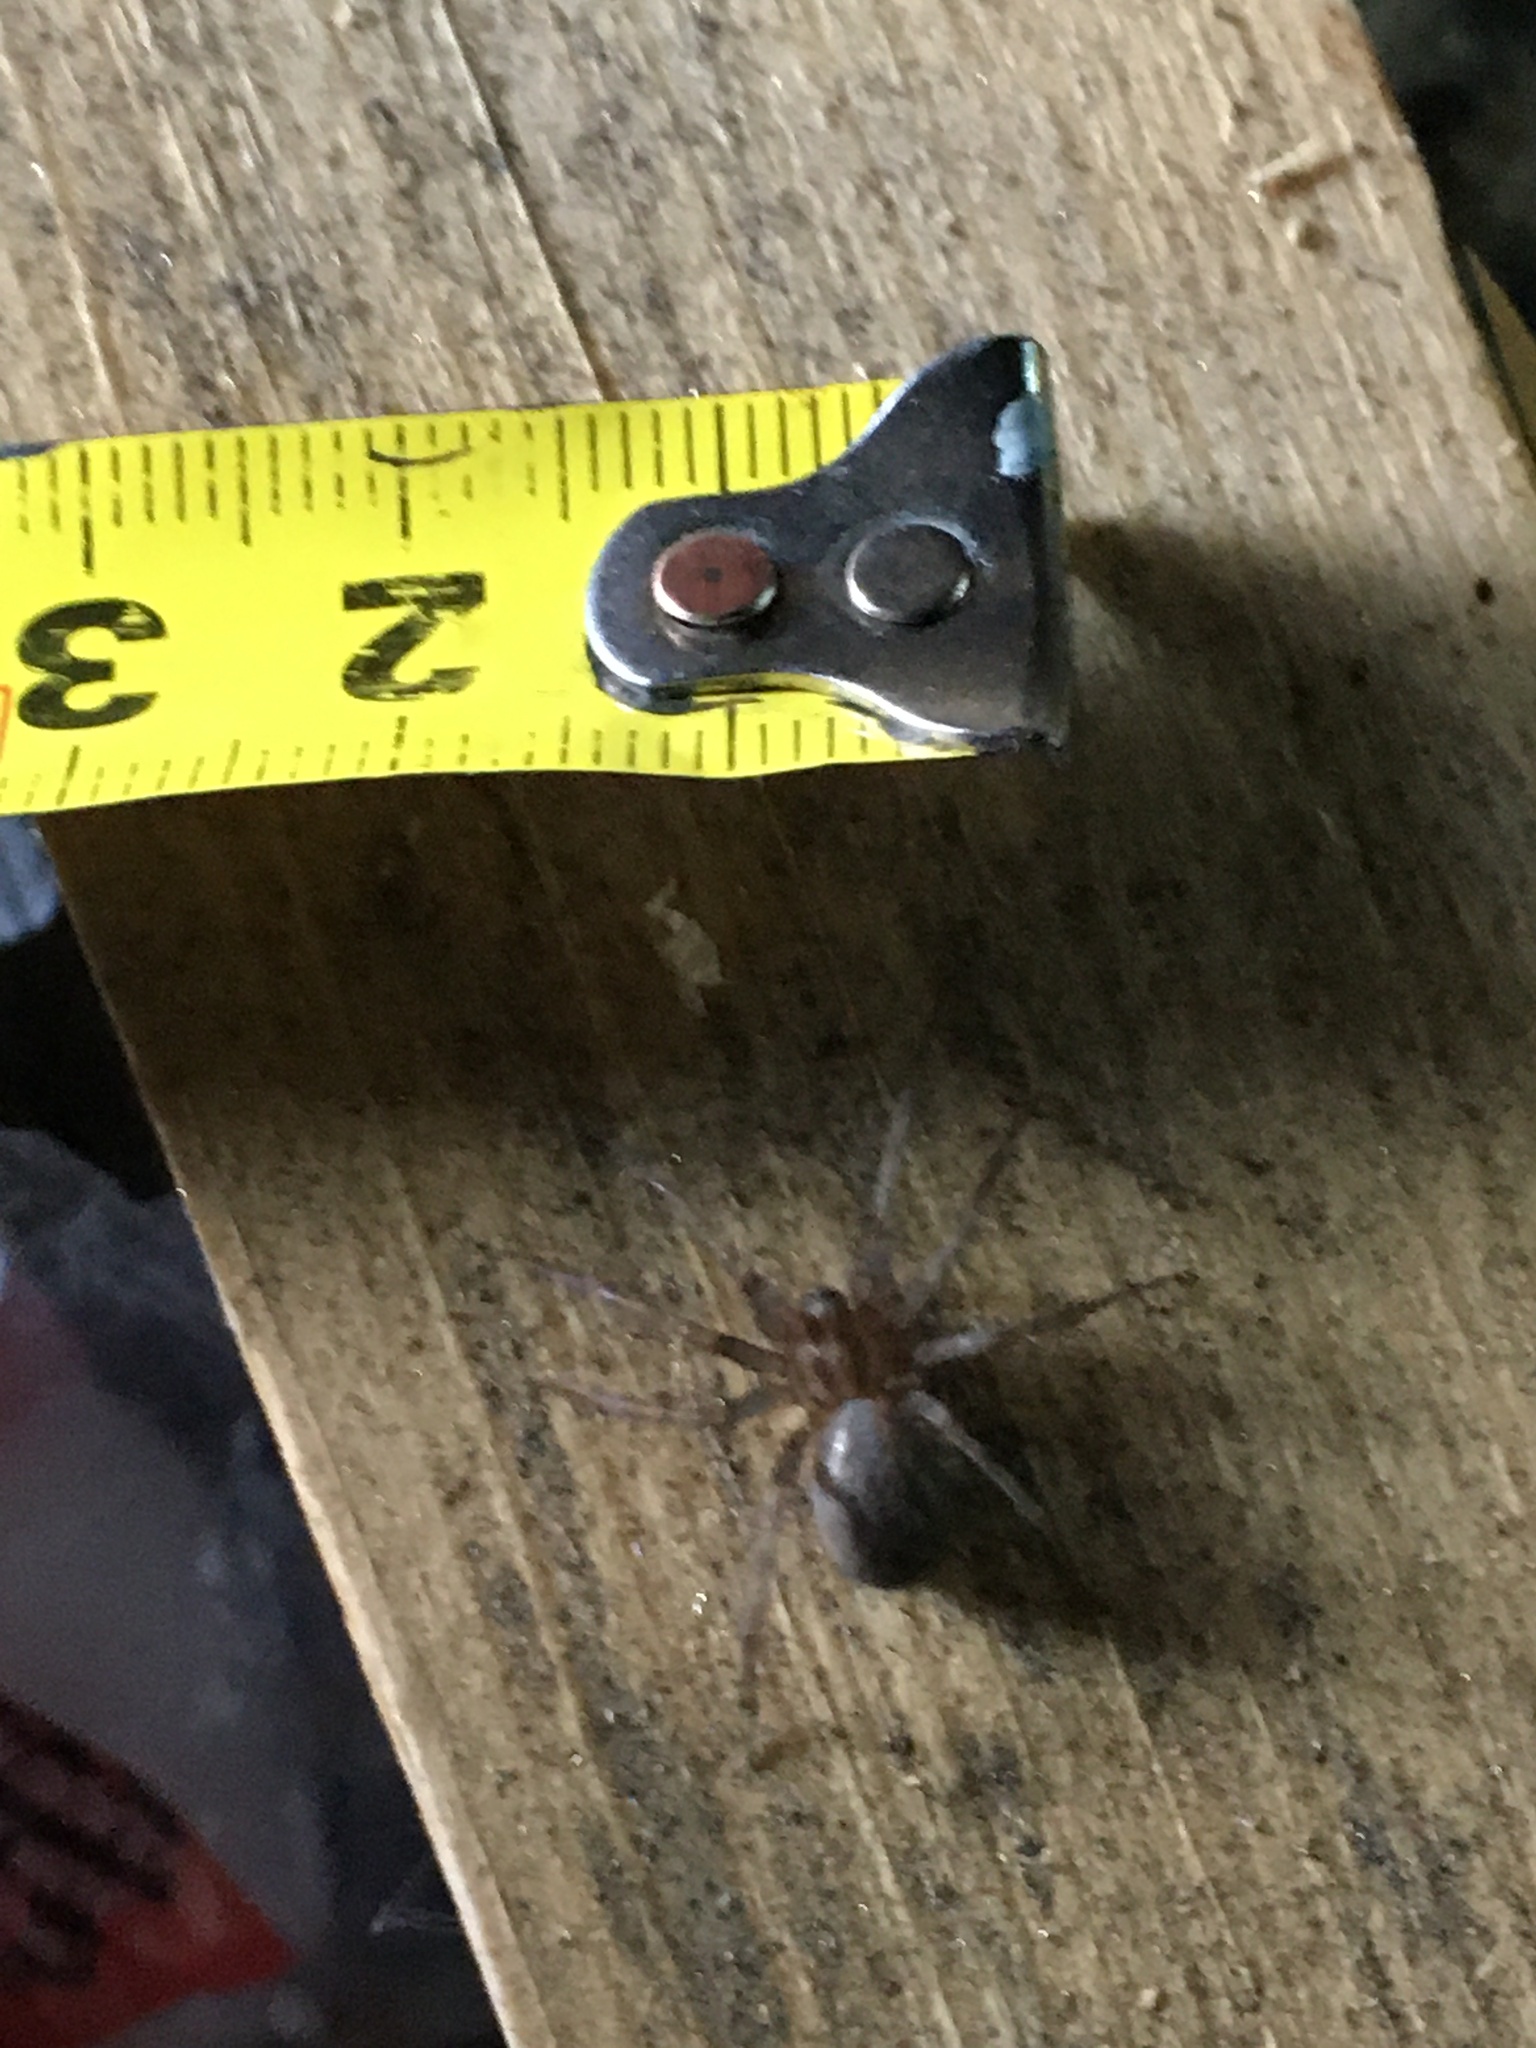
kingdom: Animalia
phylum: Arthropoda
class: Arachnida
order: Araneae
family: Agelenidae
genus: Tegenaria
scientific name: Tegenaria domestica
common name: Barn funnel weaver
